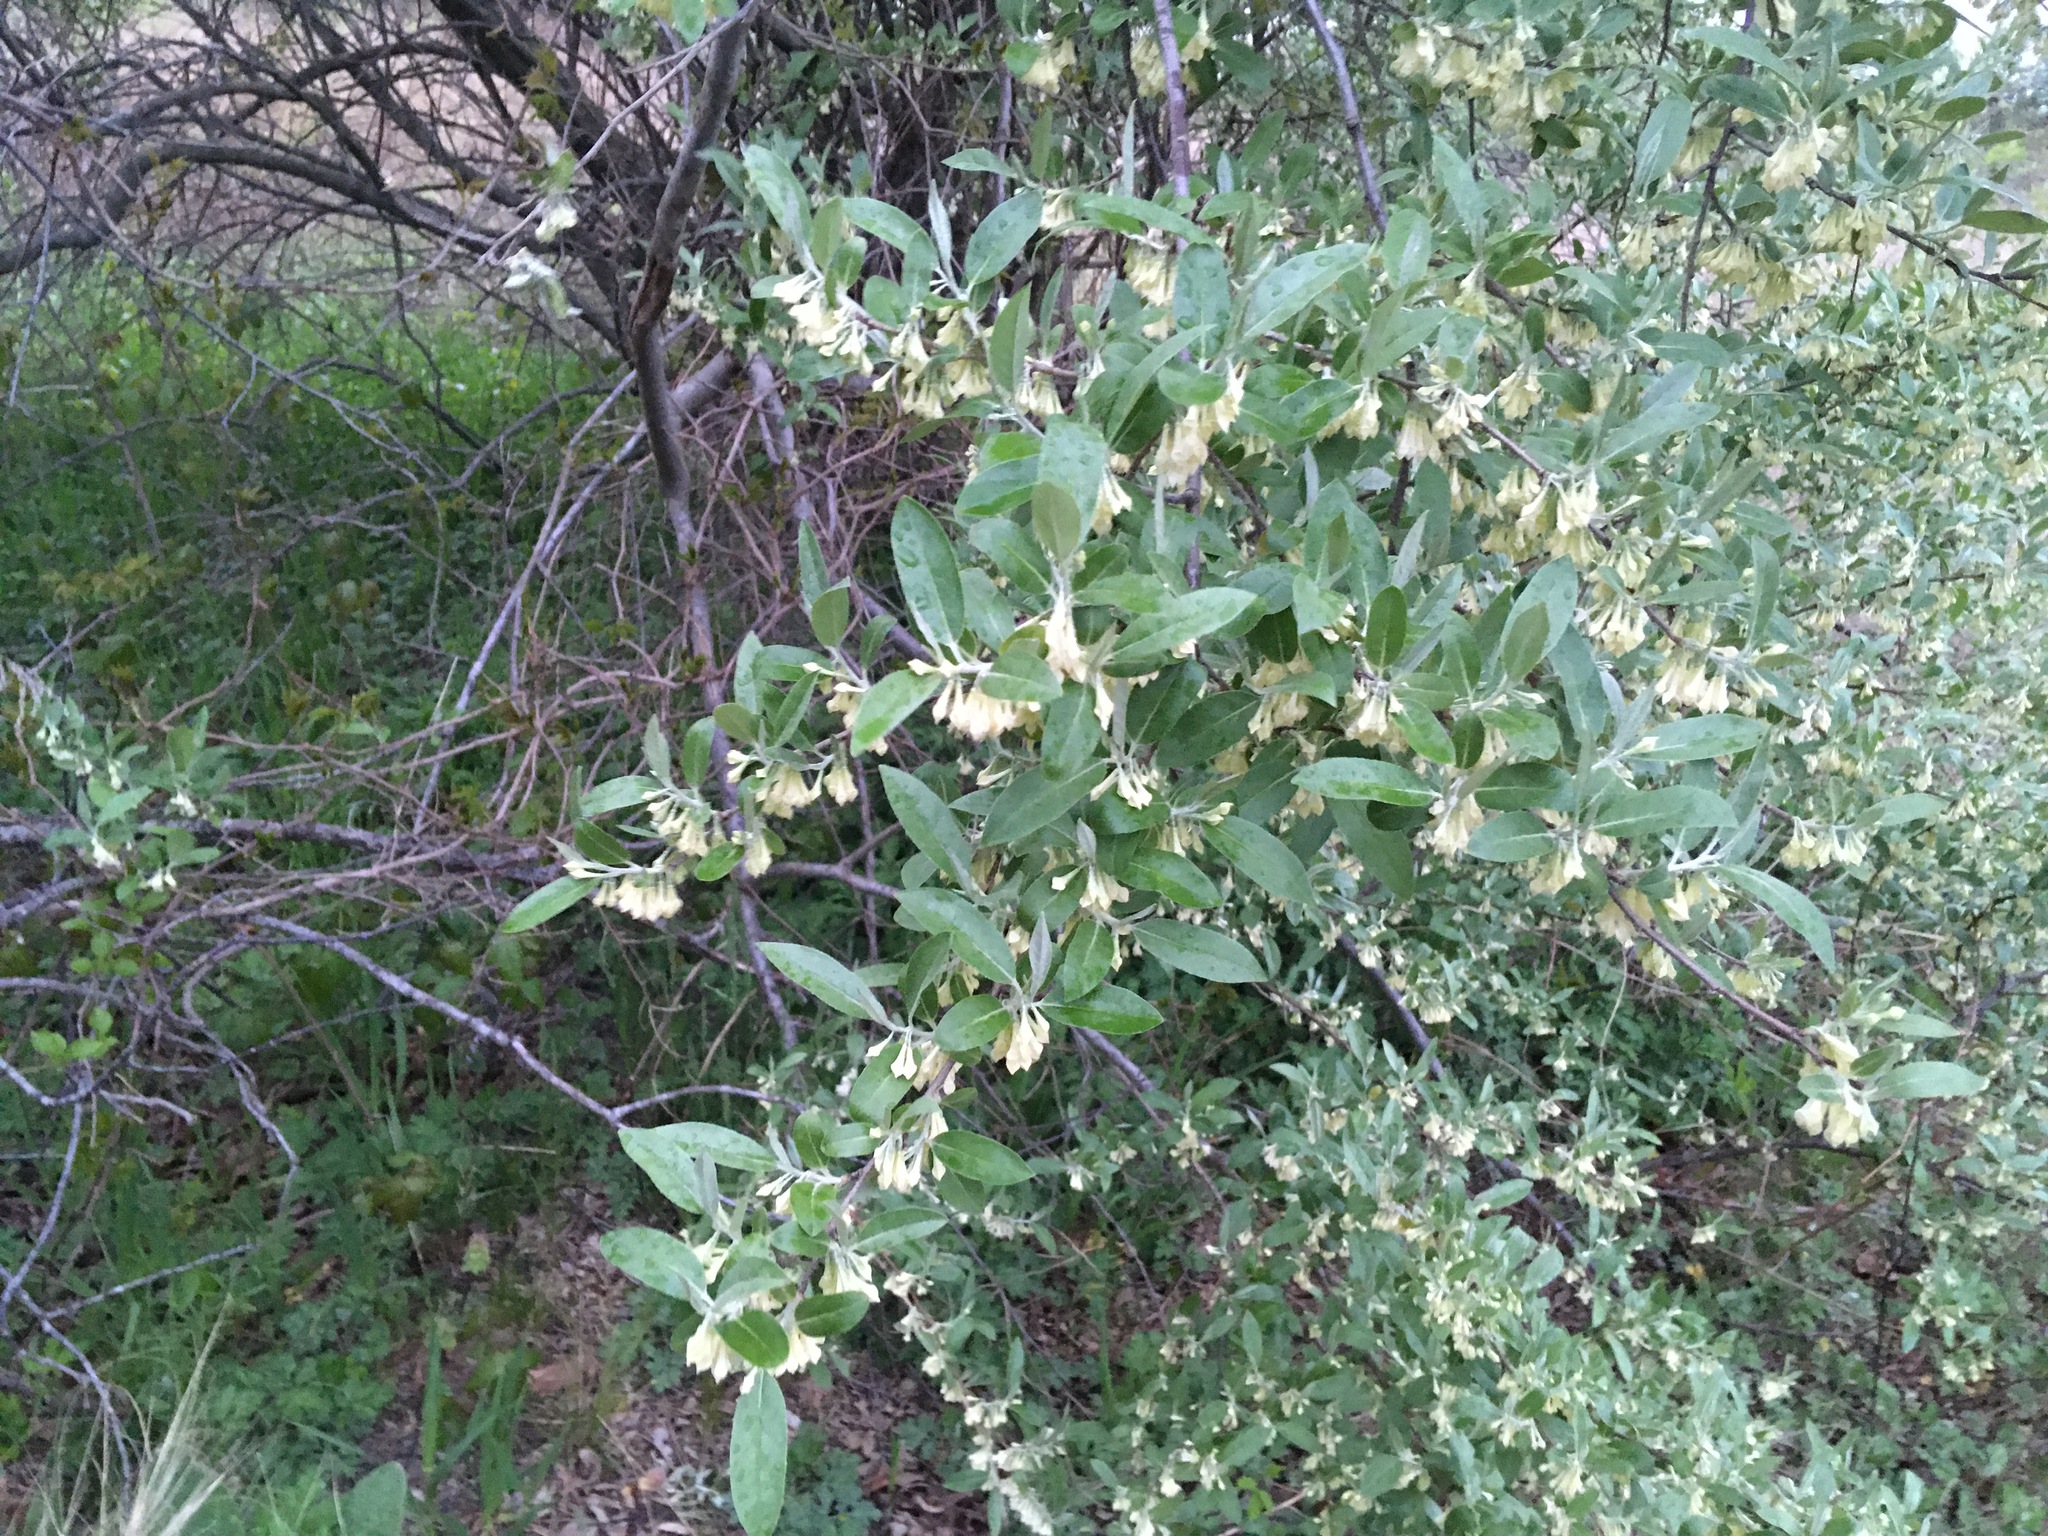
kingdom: Plantae
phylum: Tracheophyta
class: Magnoliopsida
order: Rosales
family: Elaeagnaceae
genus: Elaeagnus
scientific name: Elaeagnus umbellata
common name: Autumn olive
